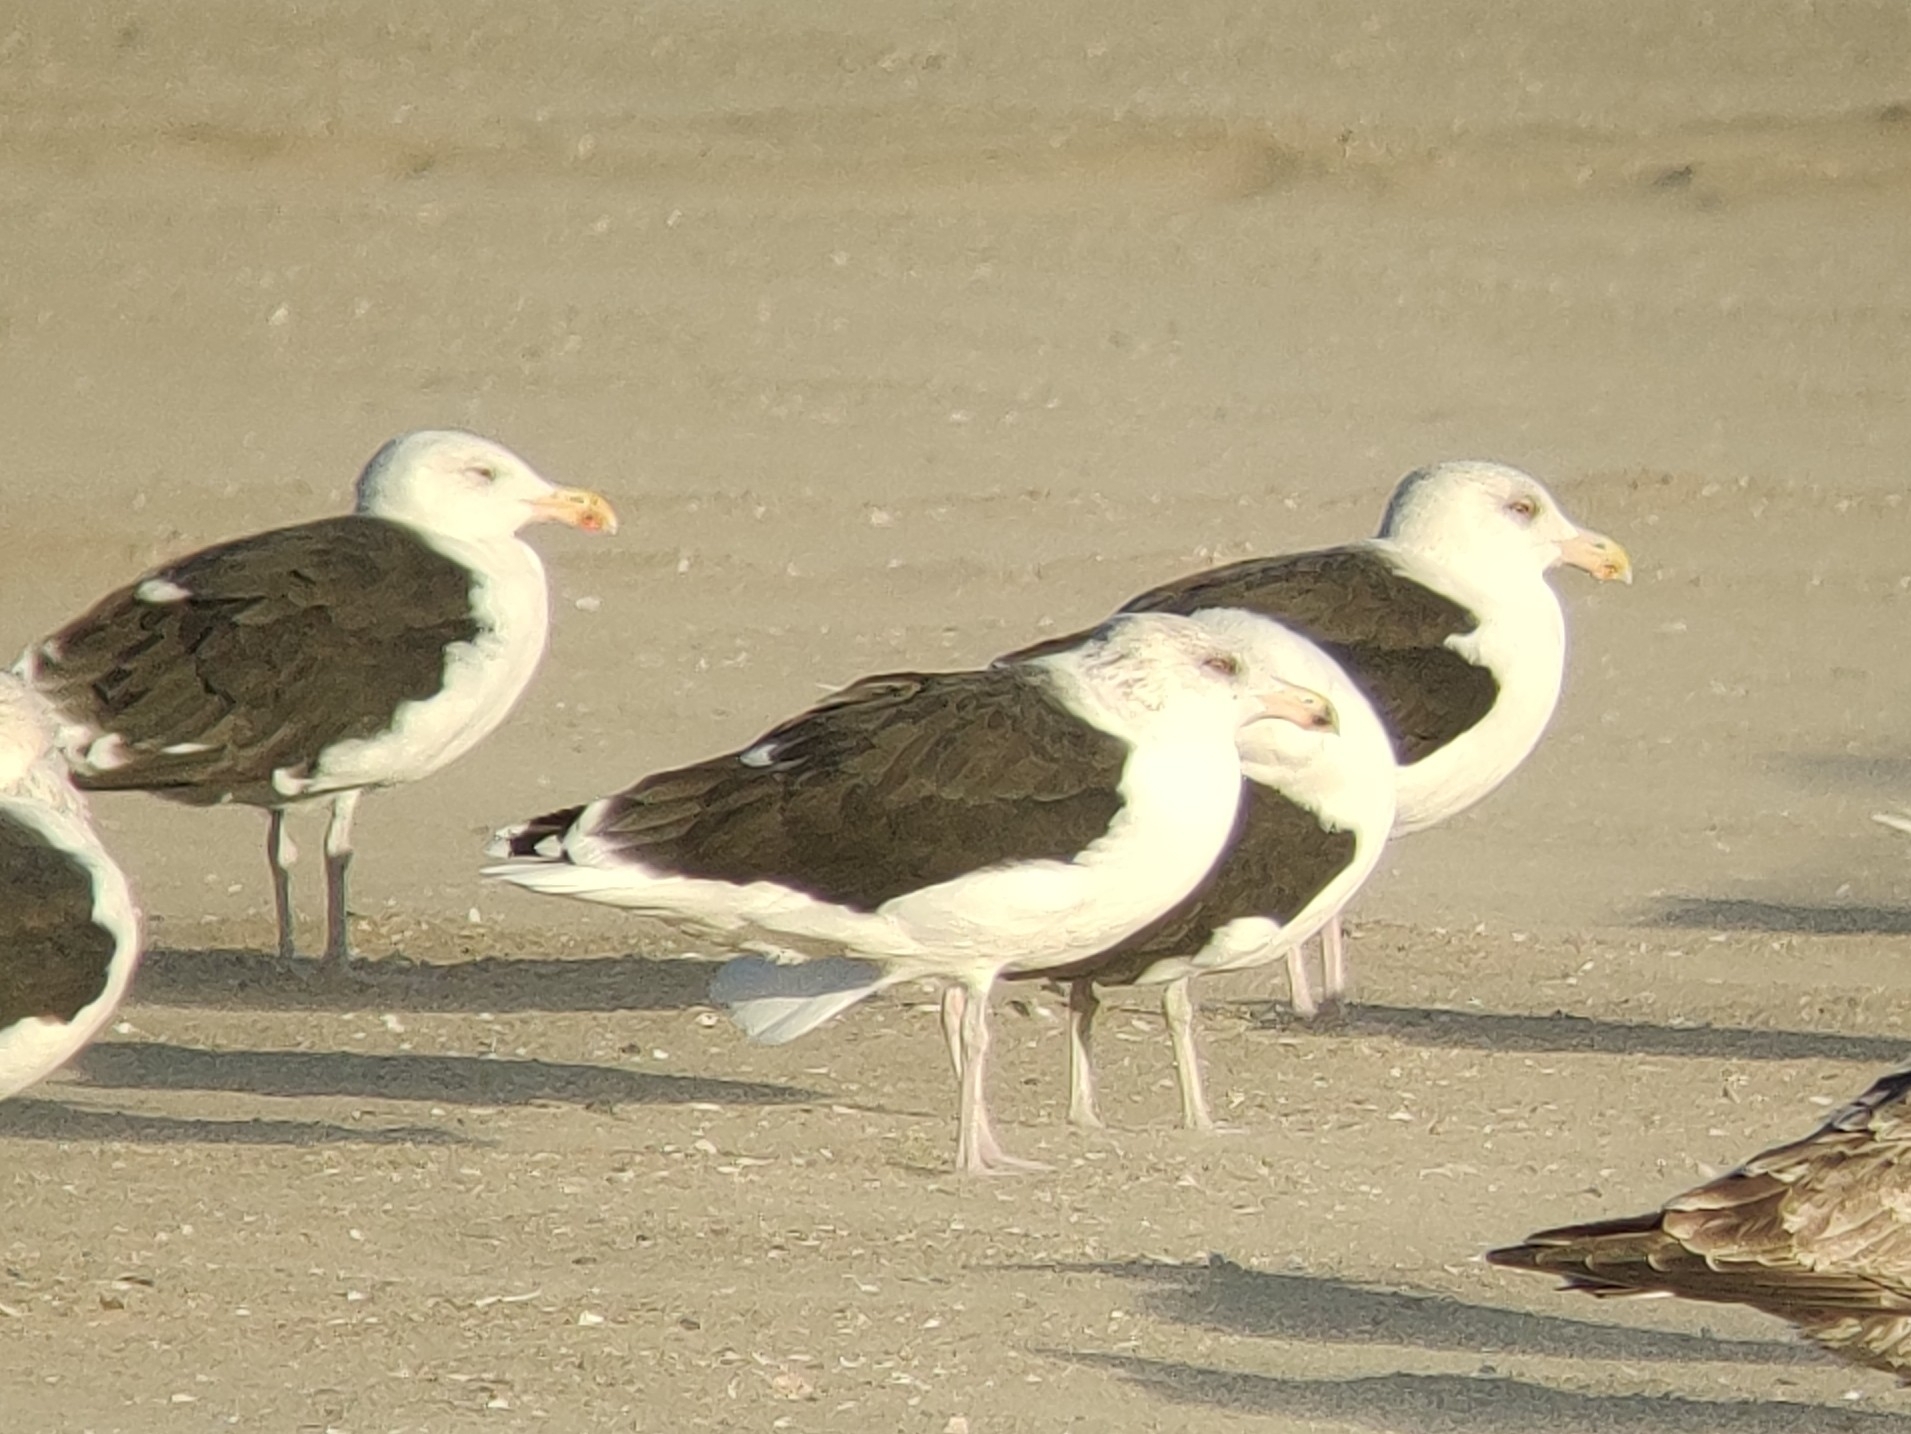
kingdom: Animalia
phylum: Chordata
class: Aves
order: Charadriiformes
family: Laridae
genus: Larus
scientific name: Larus marinus
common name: Great black-backed gull
